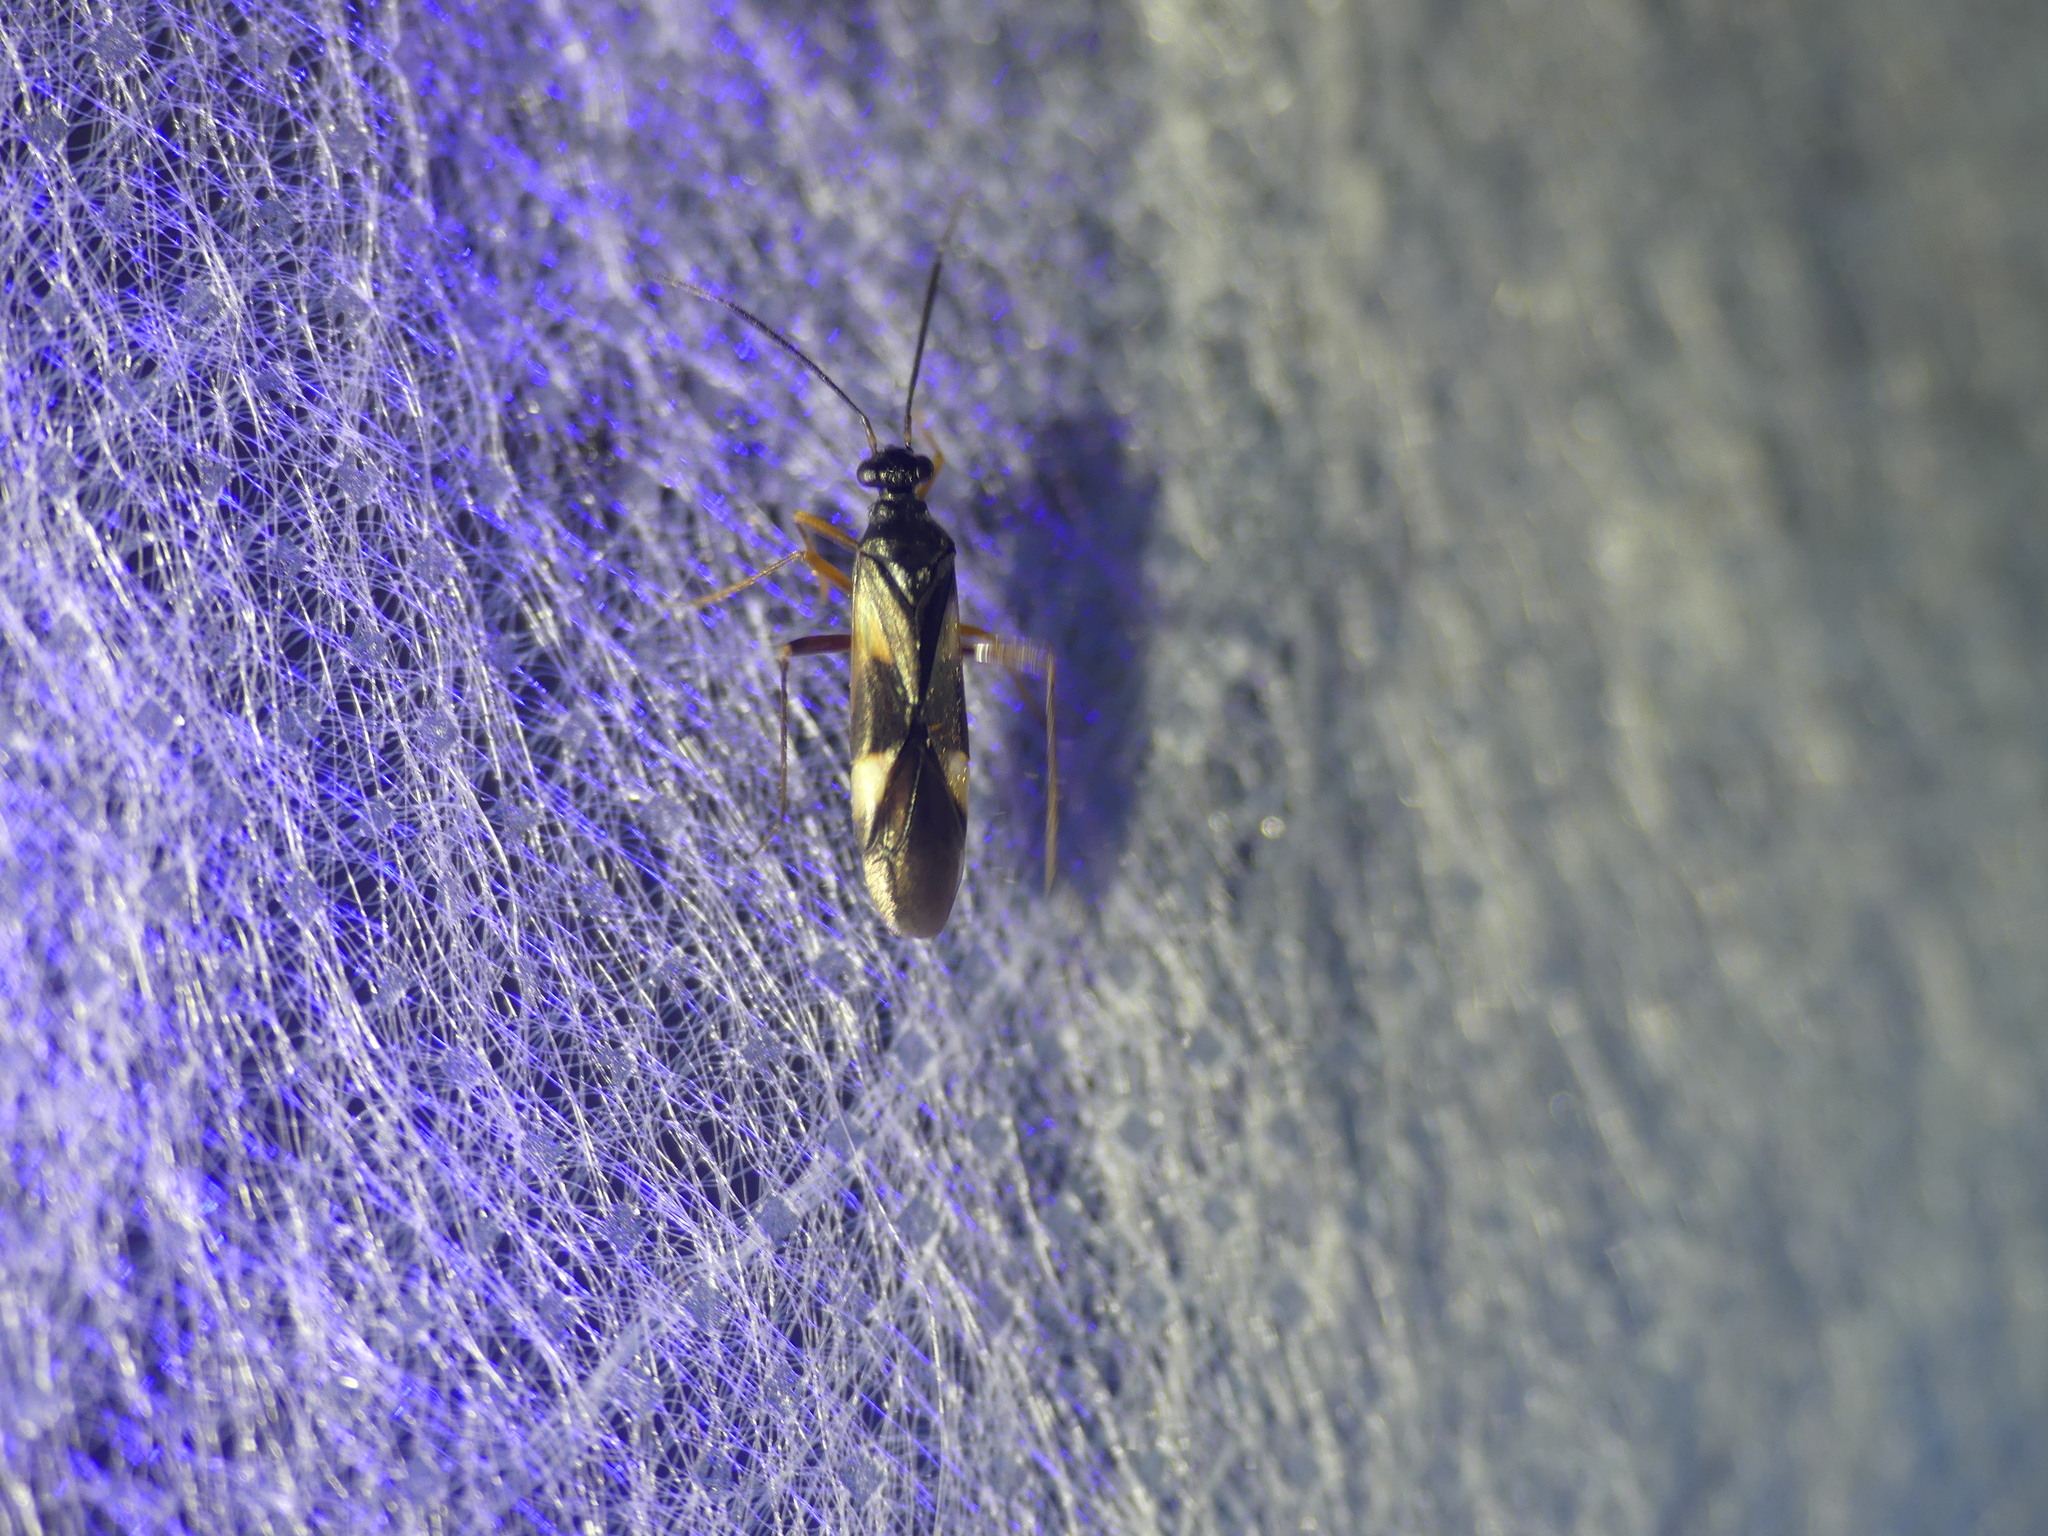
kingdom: Animalia
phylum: Arthropoda
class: Insecta
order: Hemiptera
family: Miridae
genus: Dryophilocoris
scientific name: Dryophilocoris flavoquadrimaculatus
